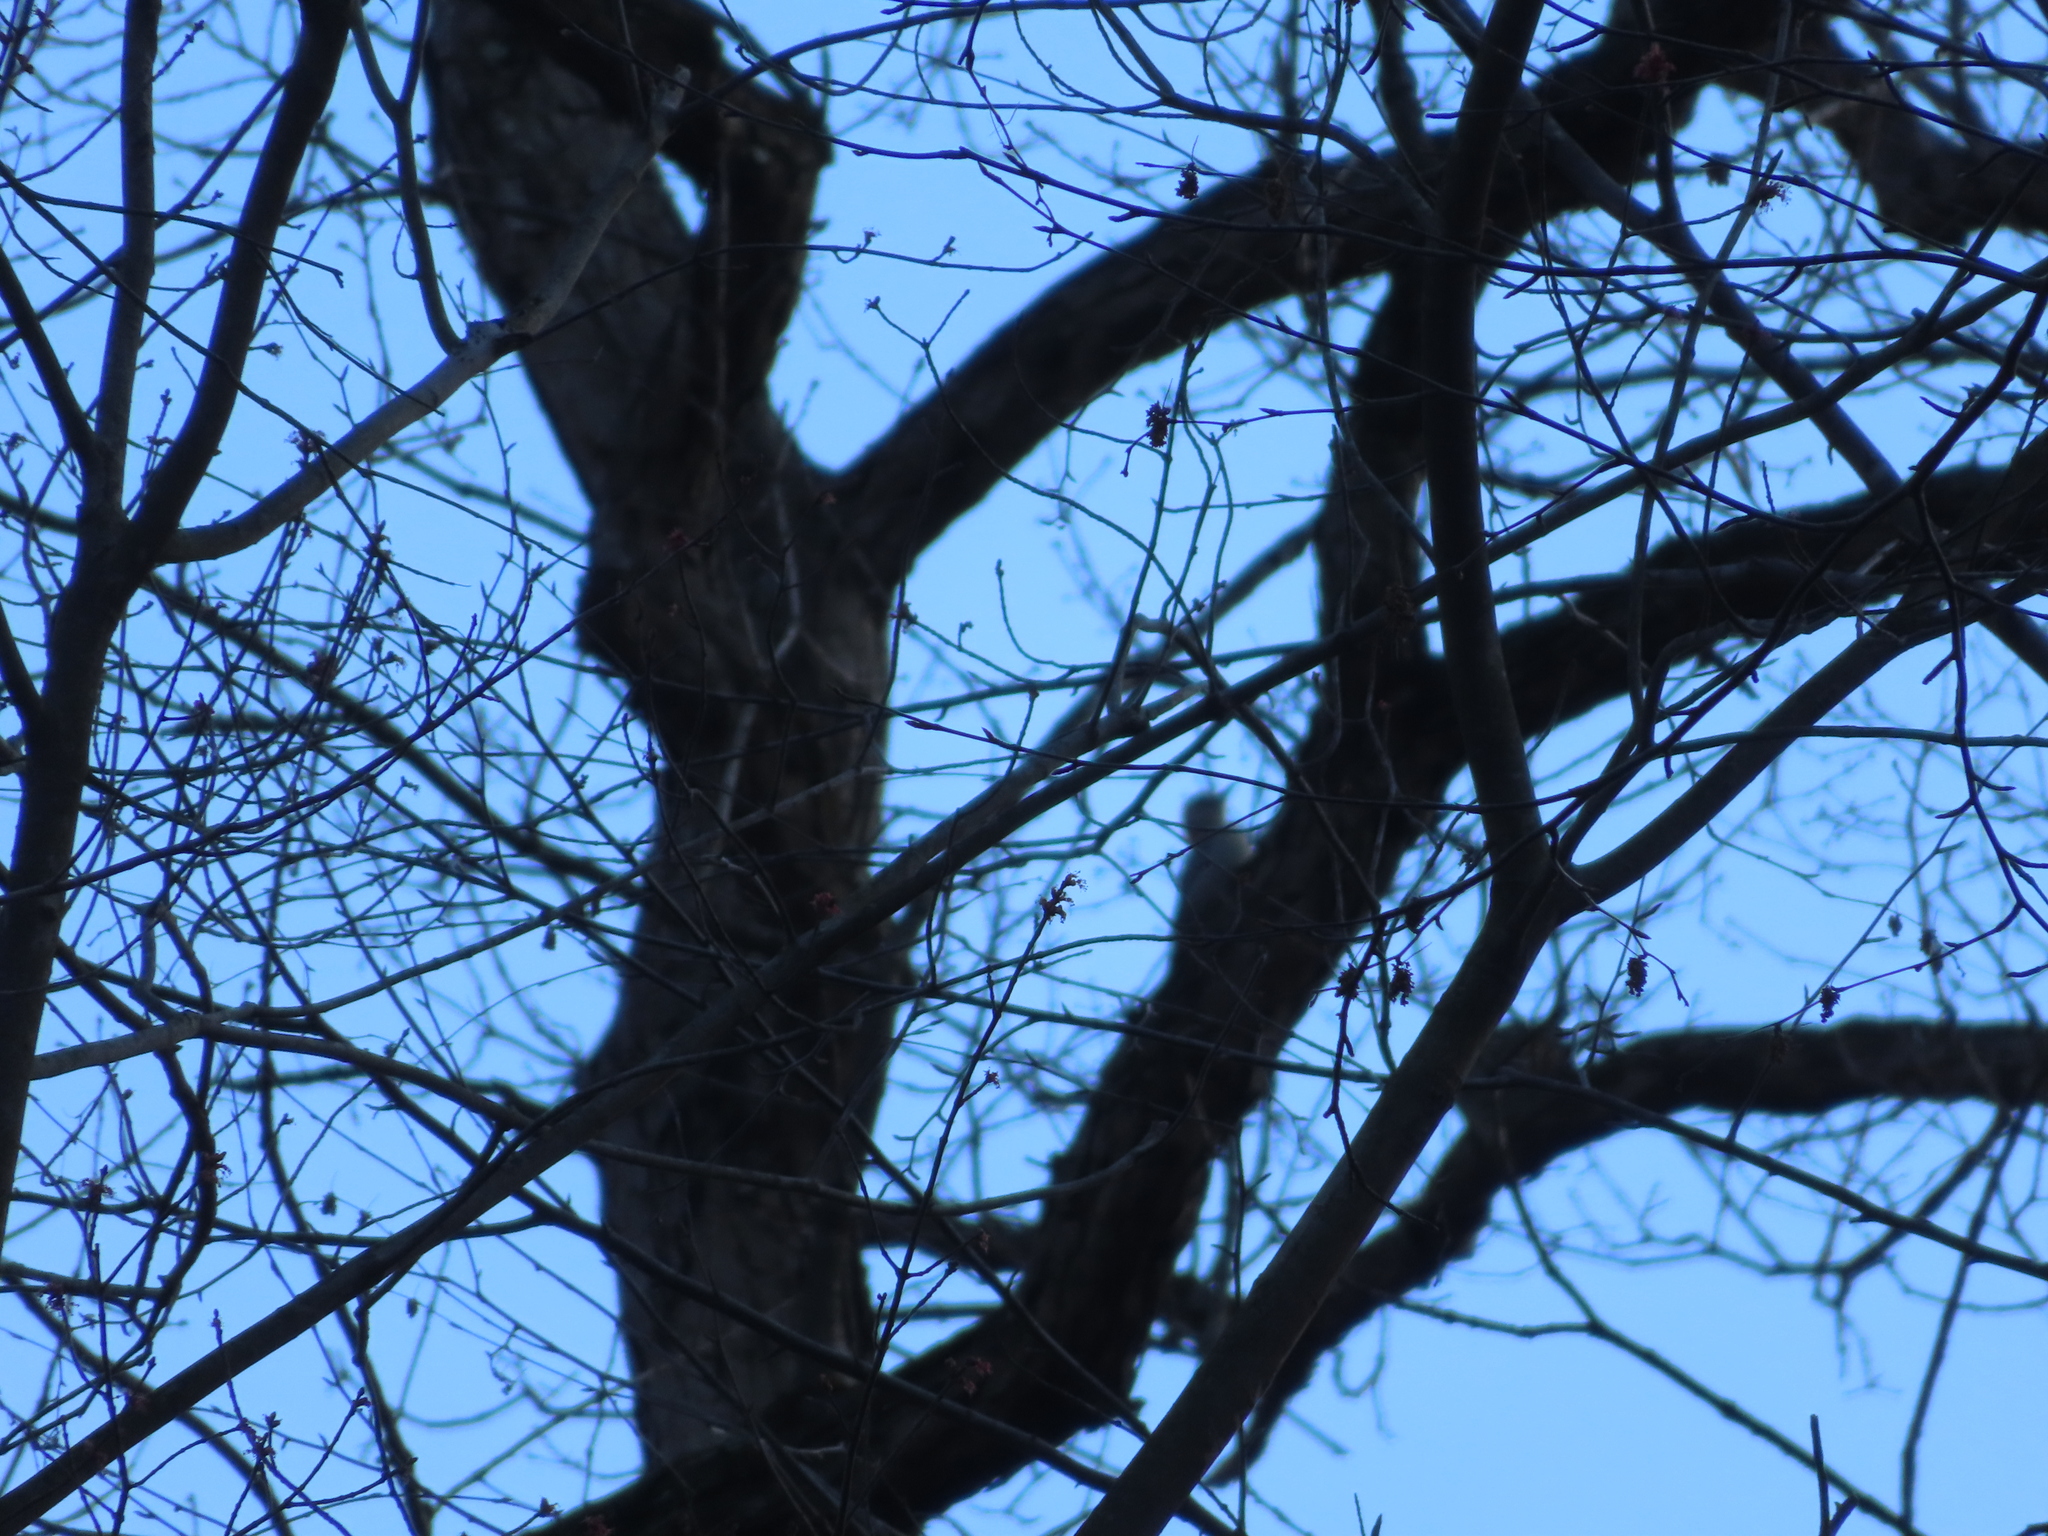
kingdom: Animalia
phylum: Chordata
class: Aves
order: Piciformes
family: Picidae
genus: Melanerpes
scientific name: Melanerpes carolinus
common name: Red-bellied woodpecker
